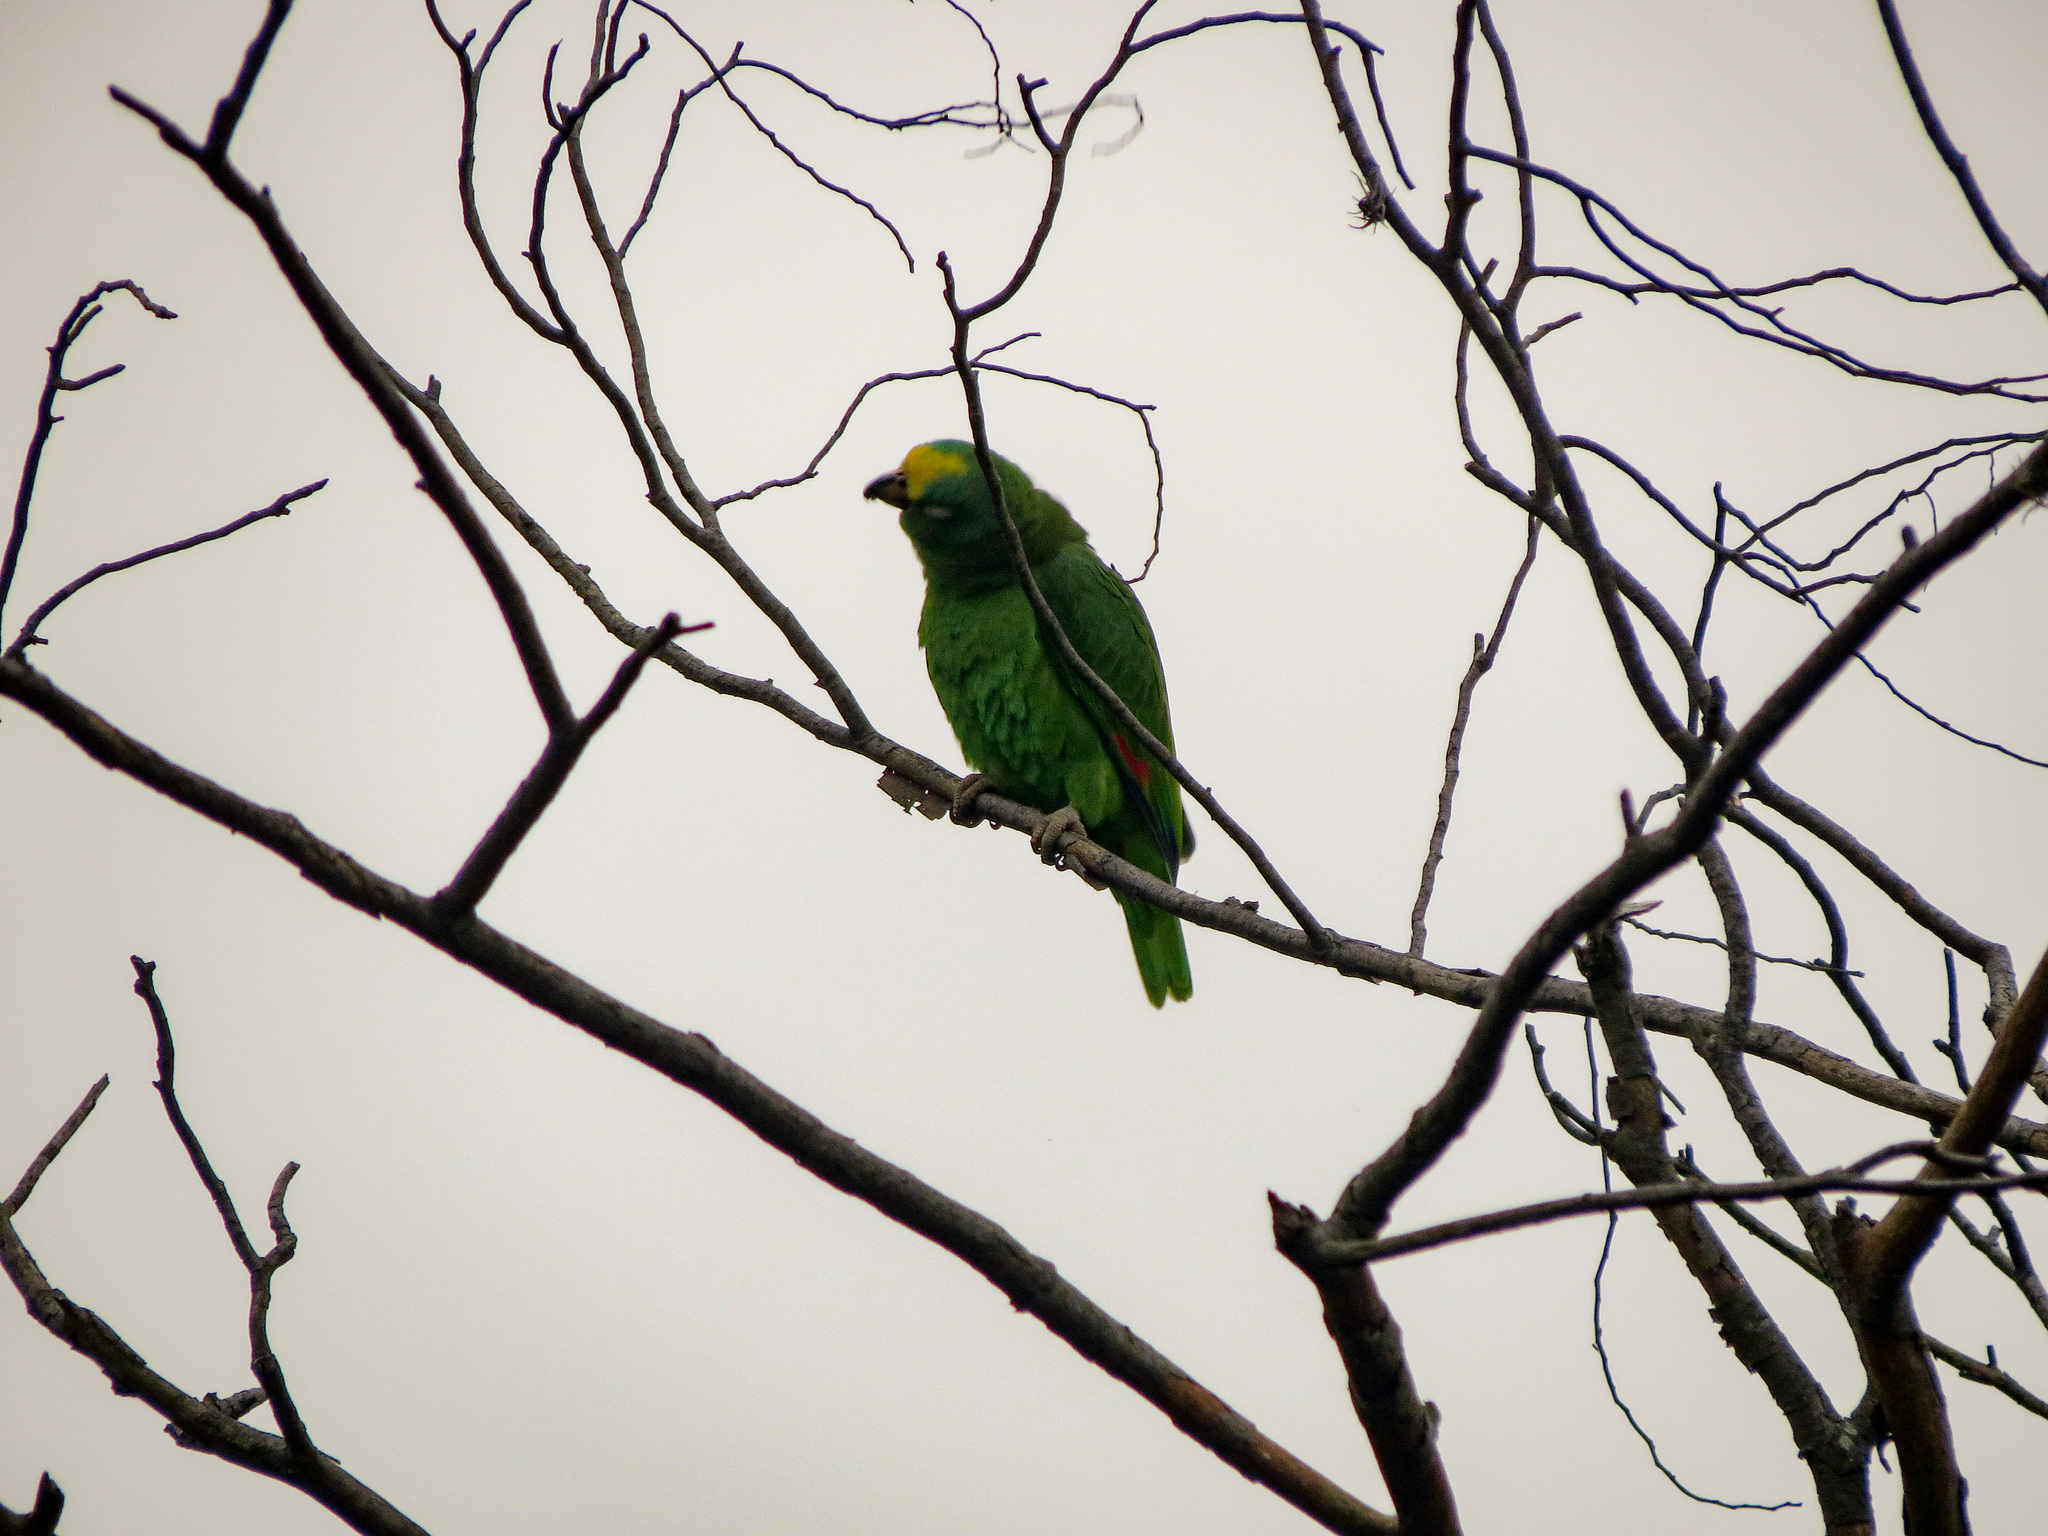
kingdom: Animalia
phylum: Chordata
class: Aves
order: Psittaciformes
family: Psittacidae
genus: Amazona
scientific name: Amazona ochrocephala
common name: Yellow-crowned amazon
